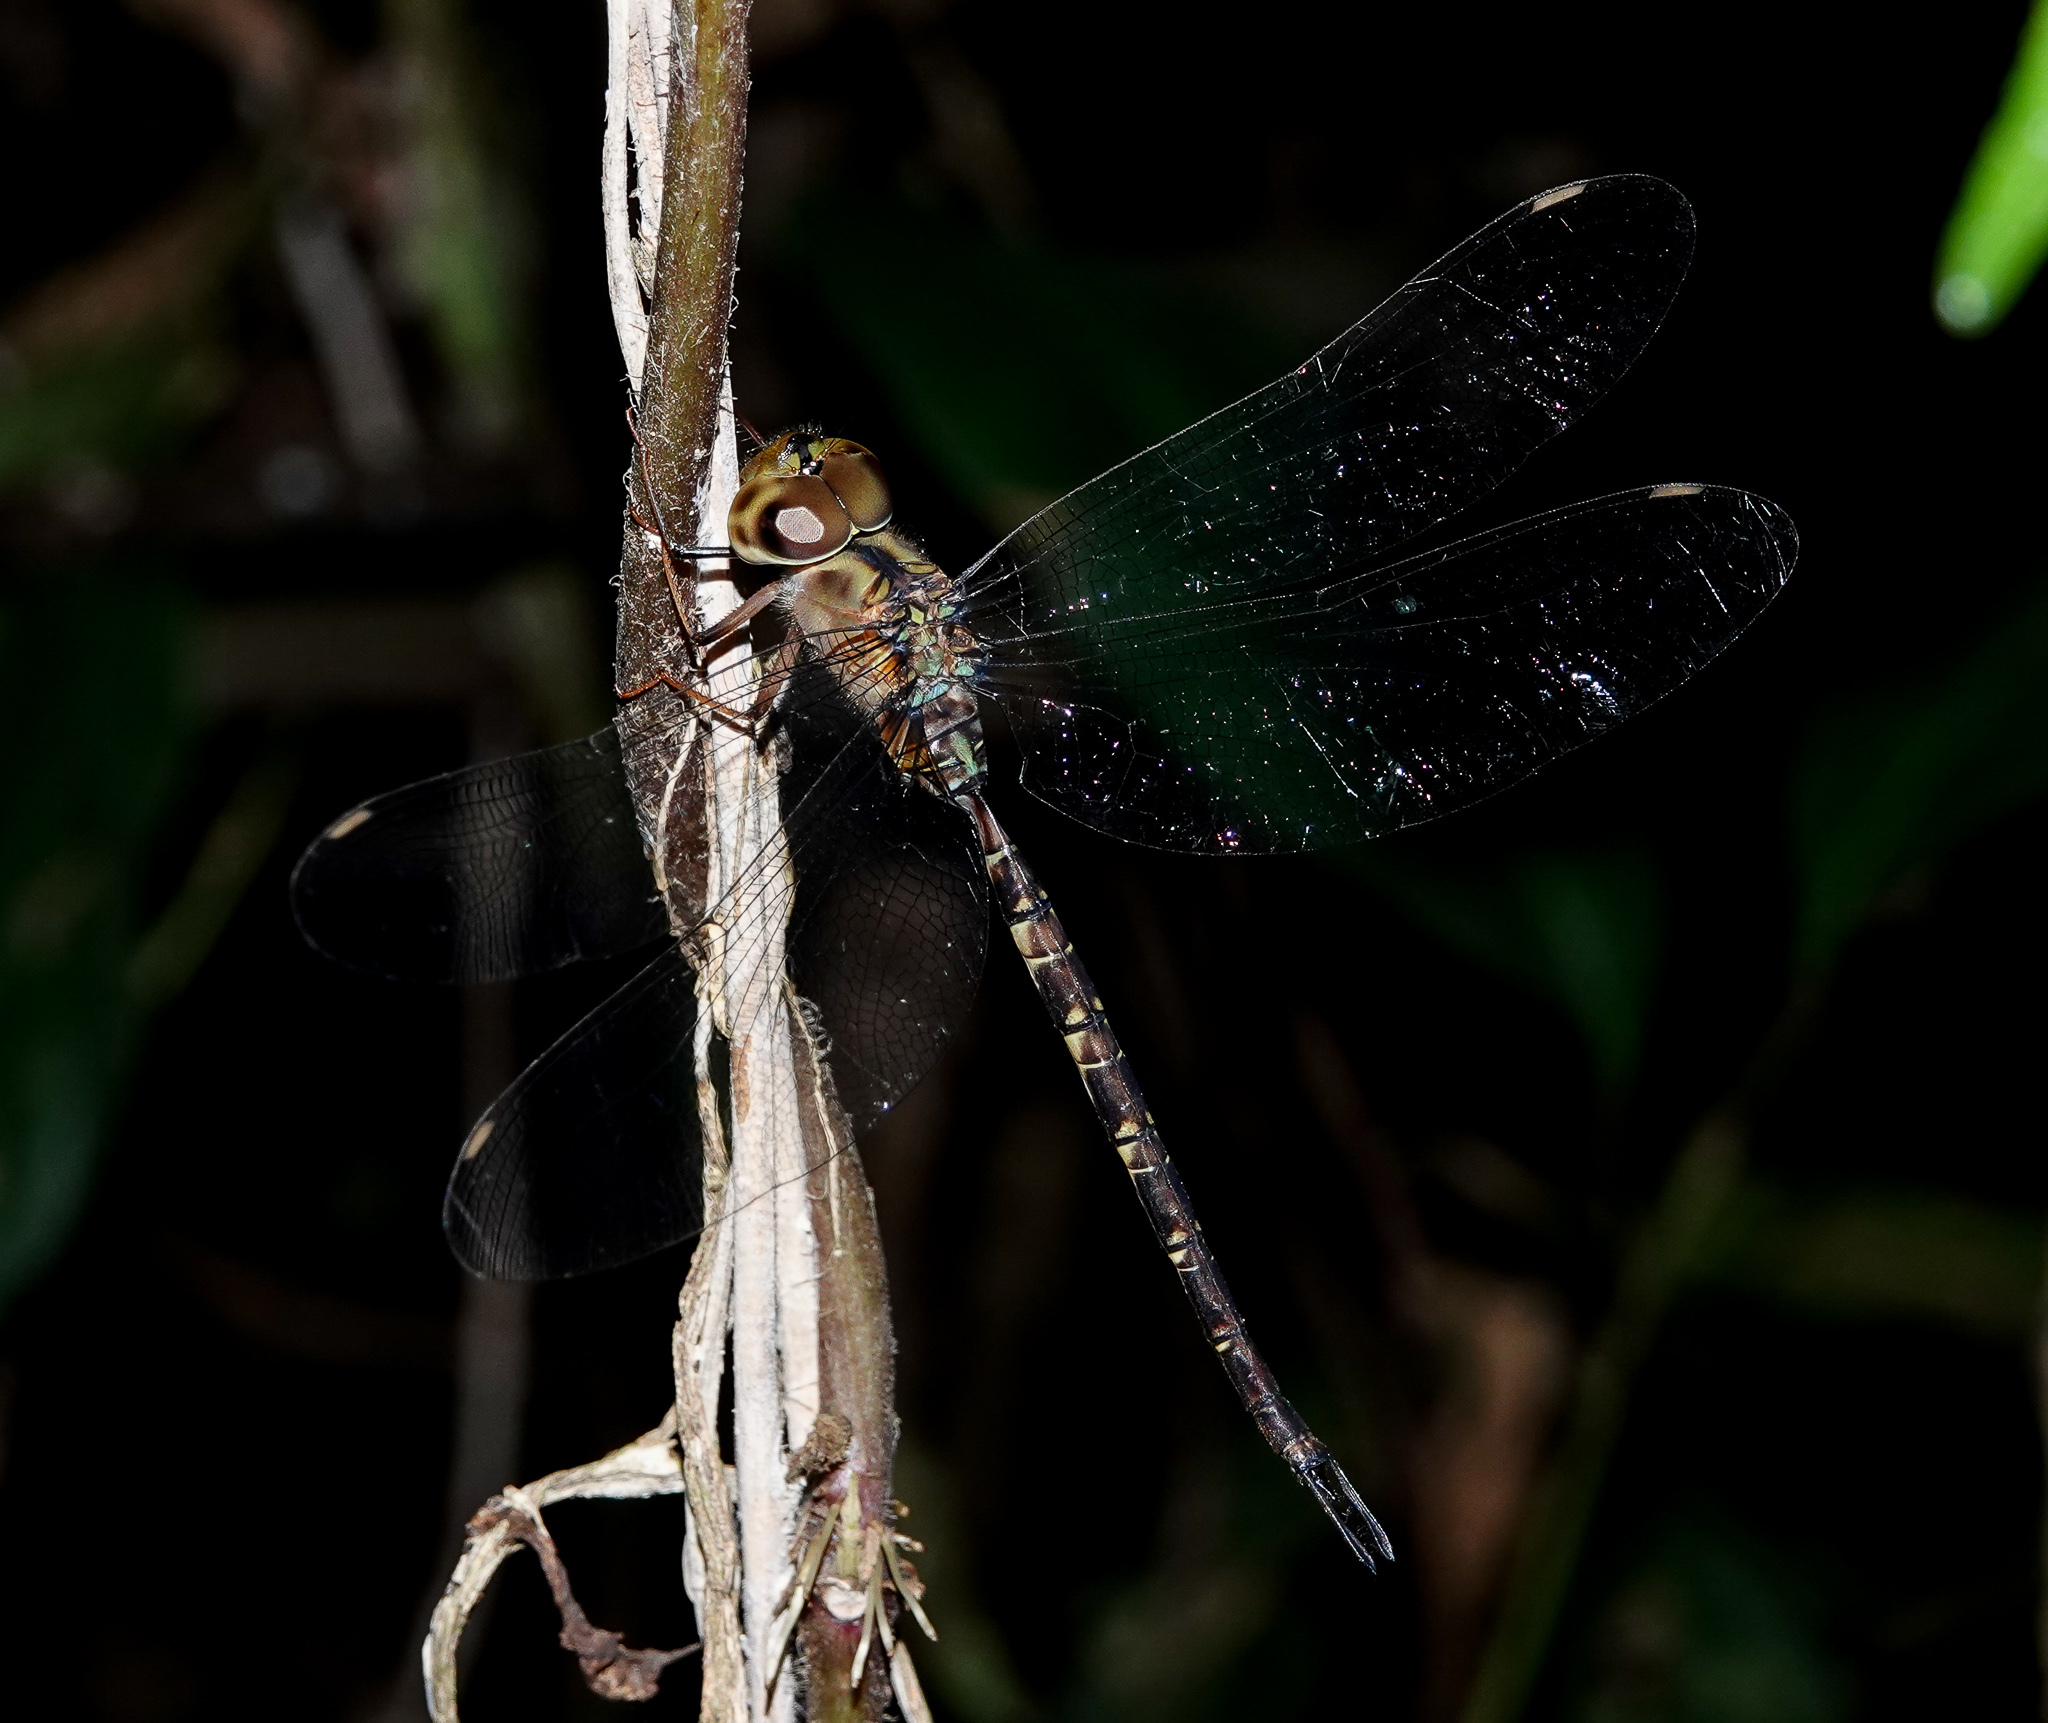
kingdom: Animalia
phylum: Arthropoda
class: Insecta
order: Odonata
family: Aeshnidae
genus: Gynacantha
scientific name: Gynacantha subinterrupta
